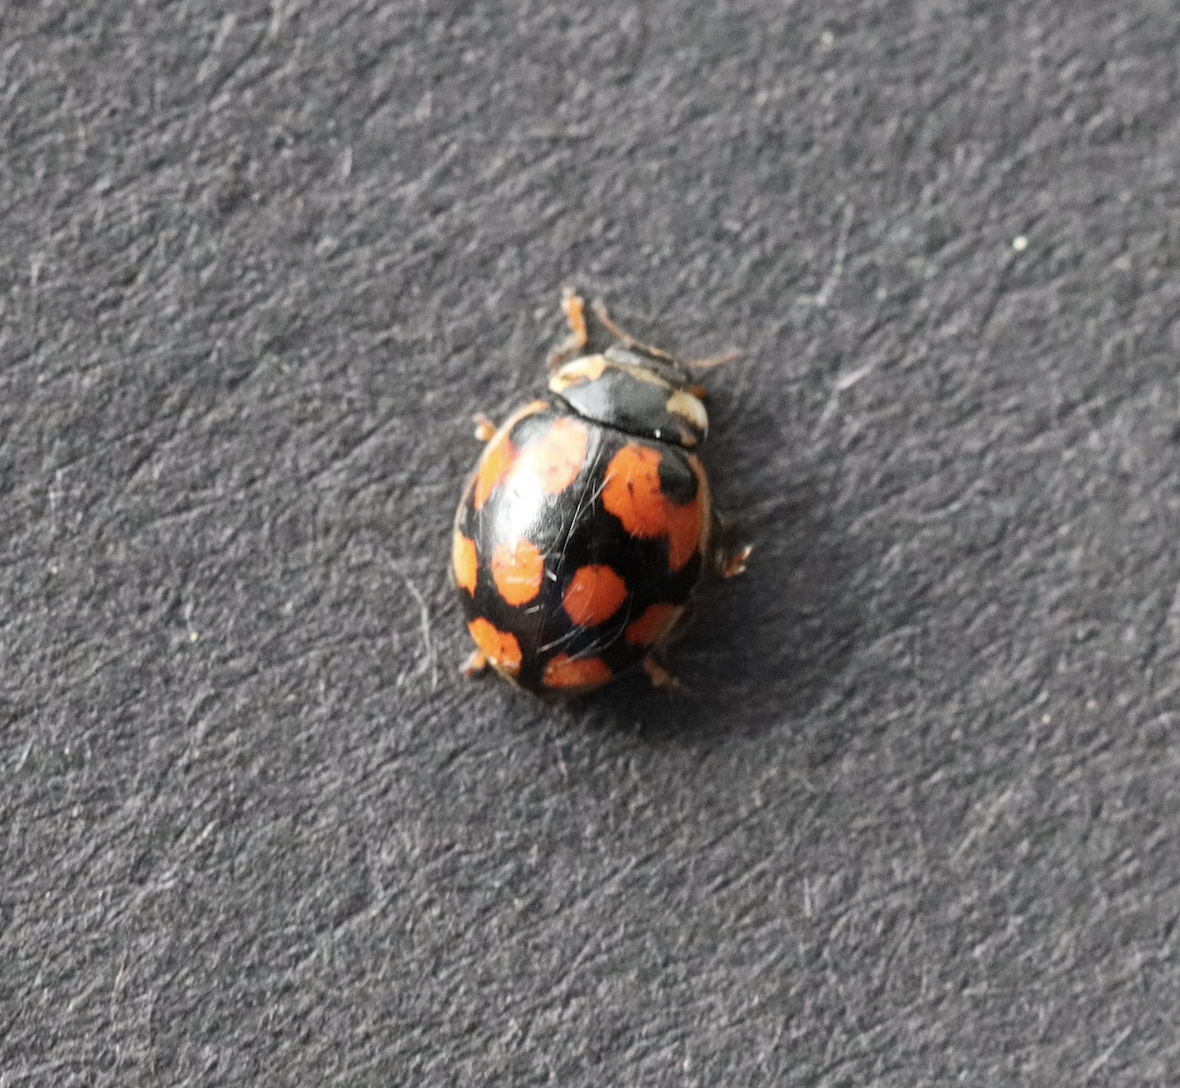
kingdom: Animalia
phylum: Arthropoda
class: Insecta
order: Coleoptera
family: Coccinellidae
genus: Adalia
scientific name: Adalia decempunctata
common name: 10-spot ladybird
